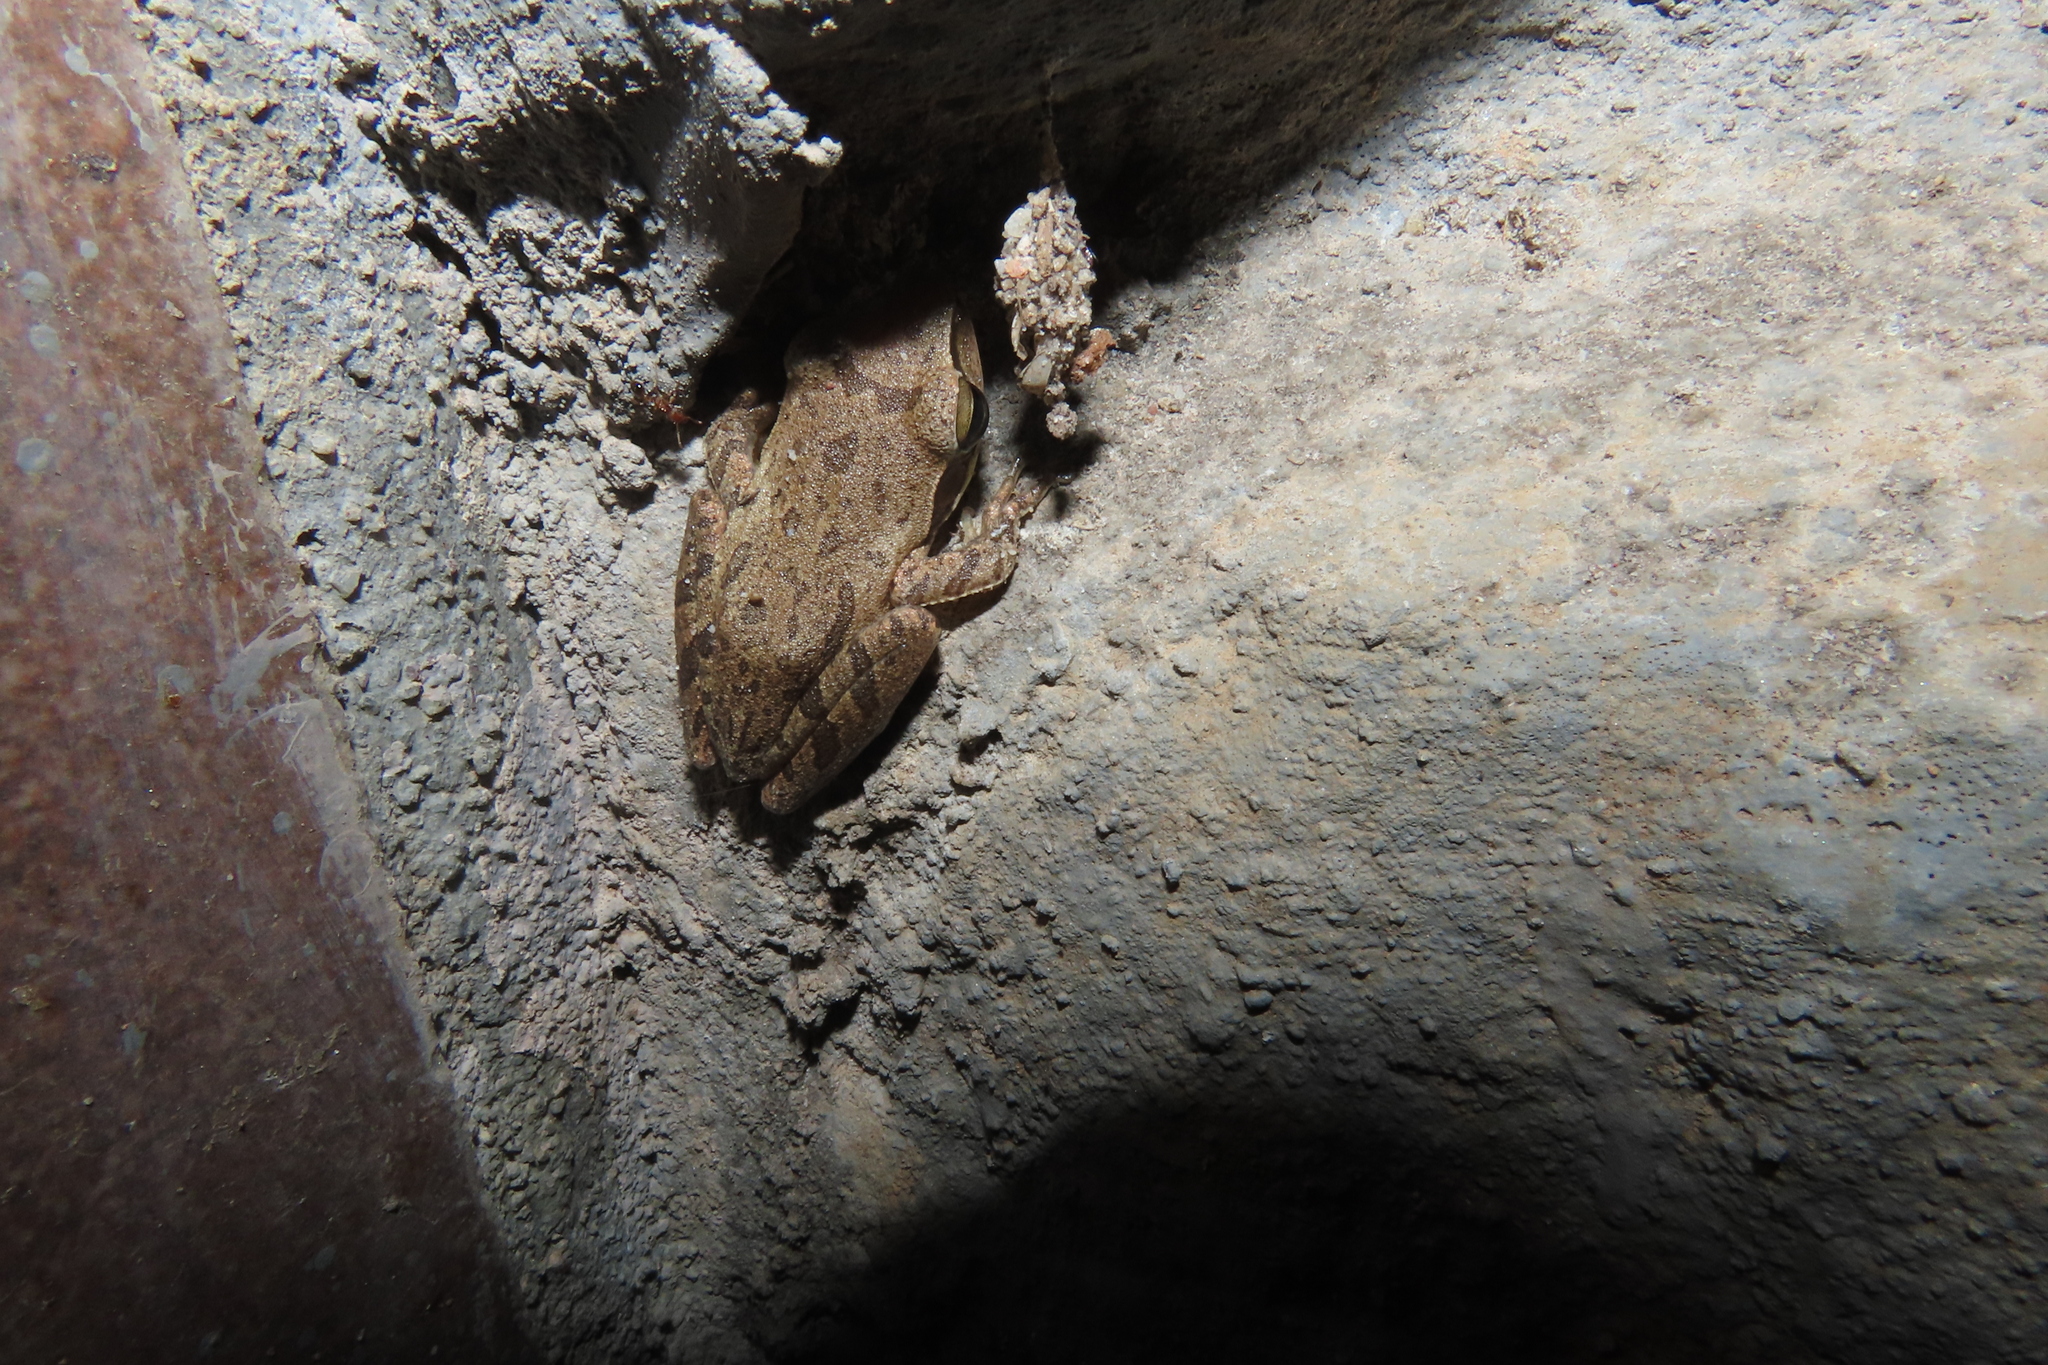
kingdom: Animalia
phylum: Chordata
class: Amphibia
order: Anura
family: Rhacophoridae
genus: Polypedates
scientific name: Polypedates maculatus
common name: Himalayan tree frog
